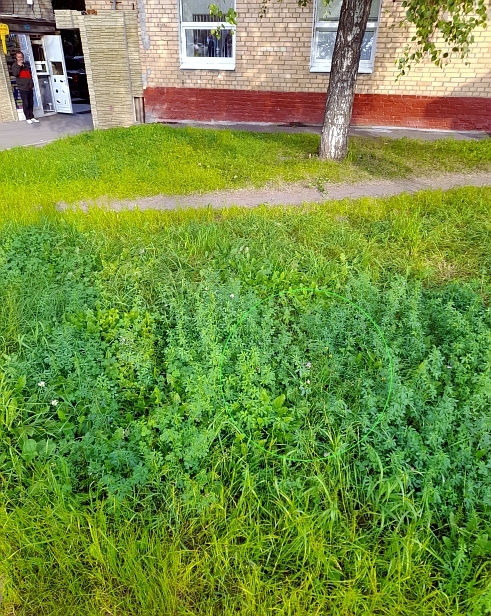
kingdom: Plantae
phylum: Tracheophyta
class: Magnoliopsida
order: Fabales
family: Fabaceae
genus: Medicago
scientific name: Medicago varia
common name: Sand lucerne
